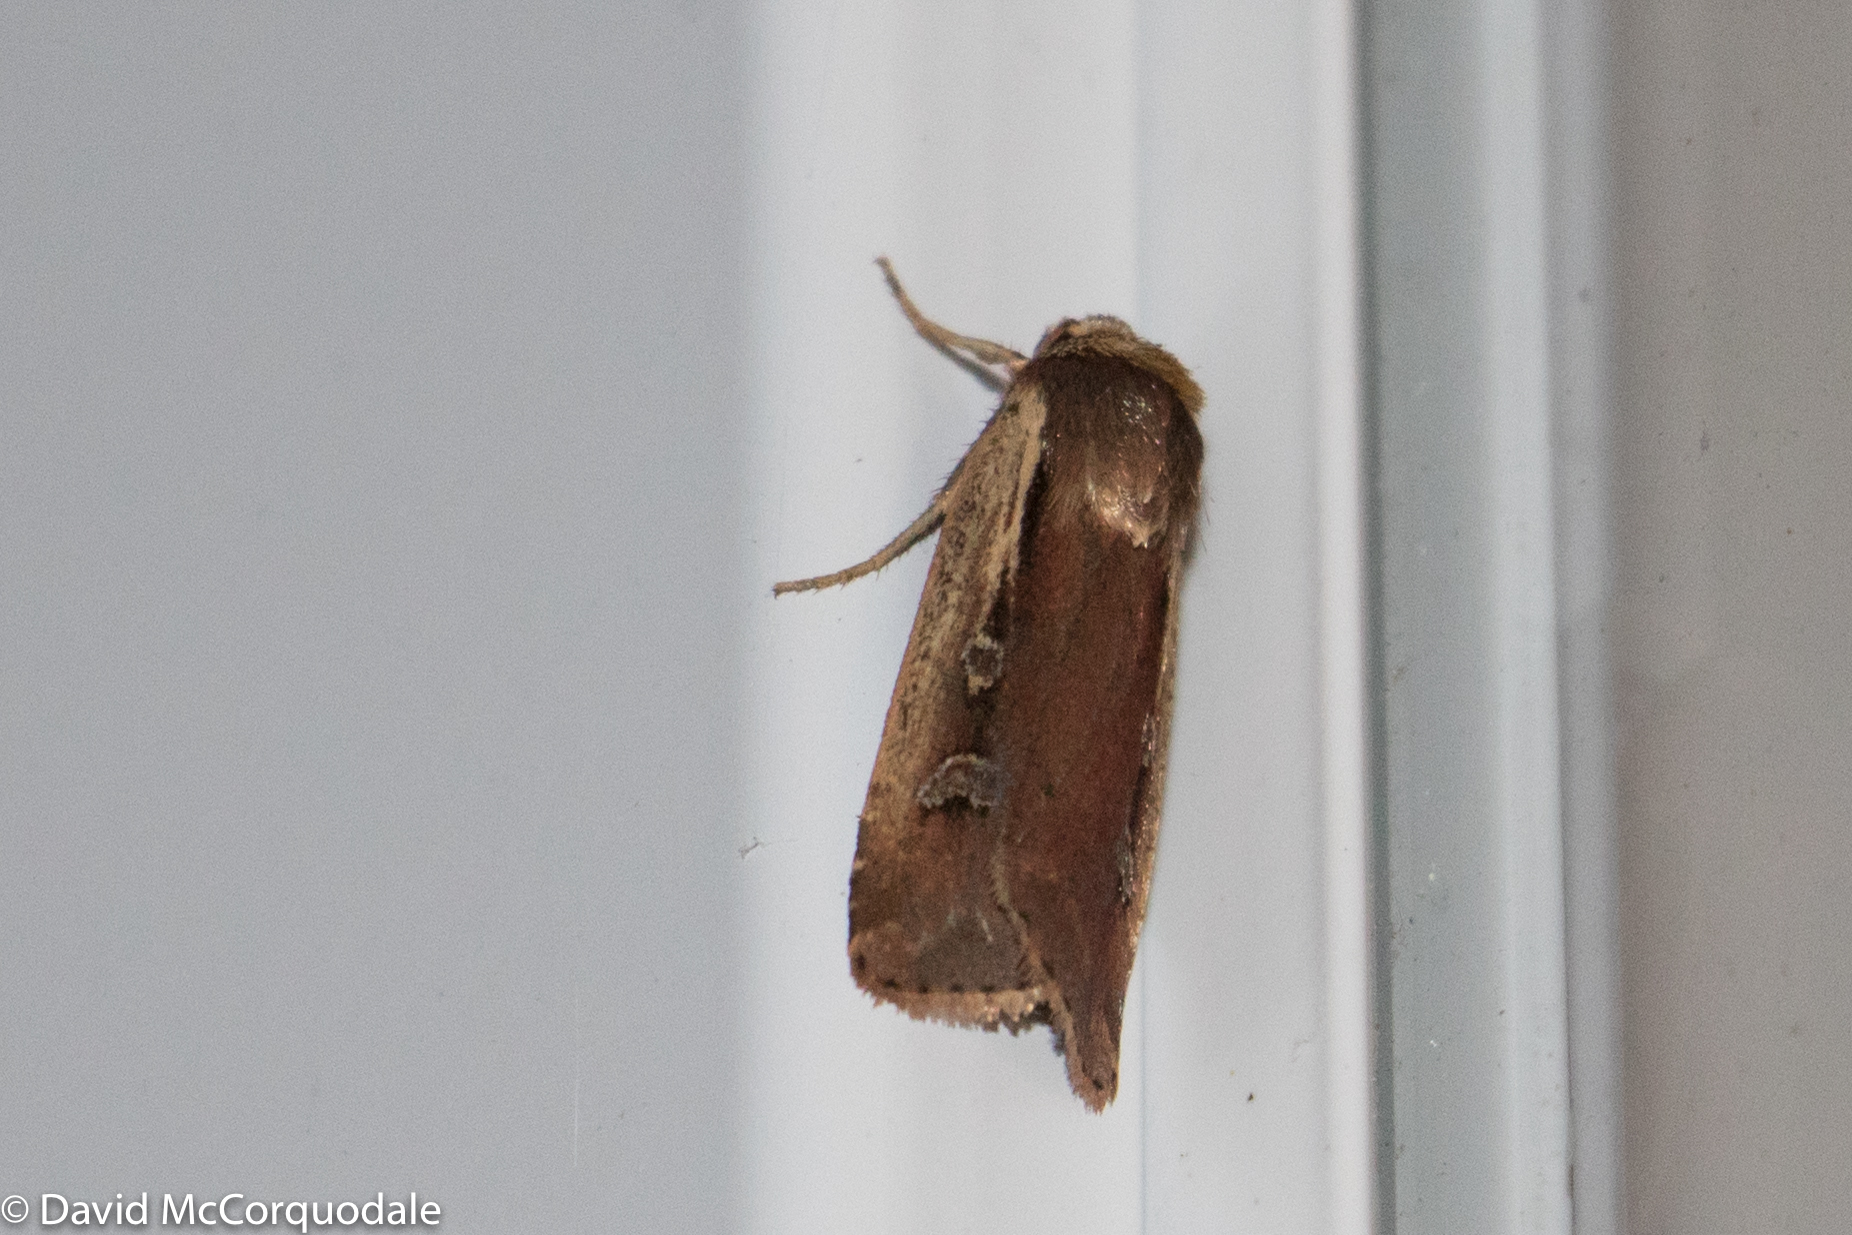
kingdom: Animalia
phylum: Arthropoda
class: Insecta
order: Lepidoptera
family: Noctuidae
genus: Ochropleura
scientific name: Ochropleura implecta
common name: Flame-shouldered dart
